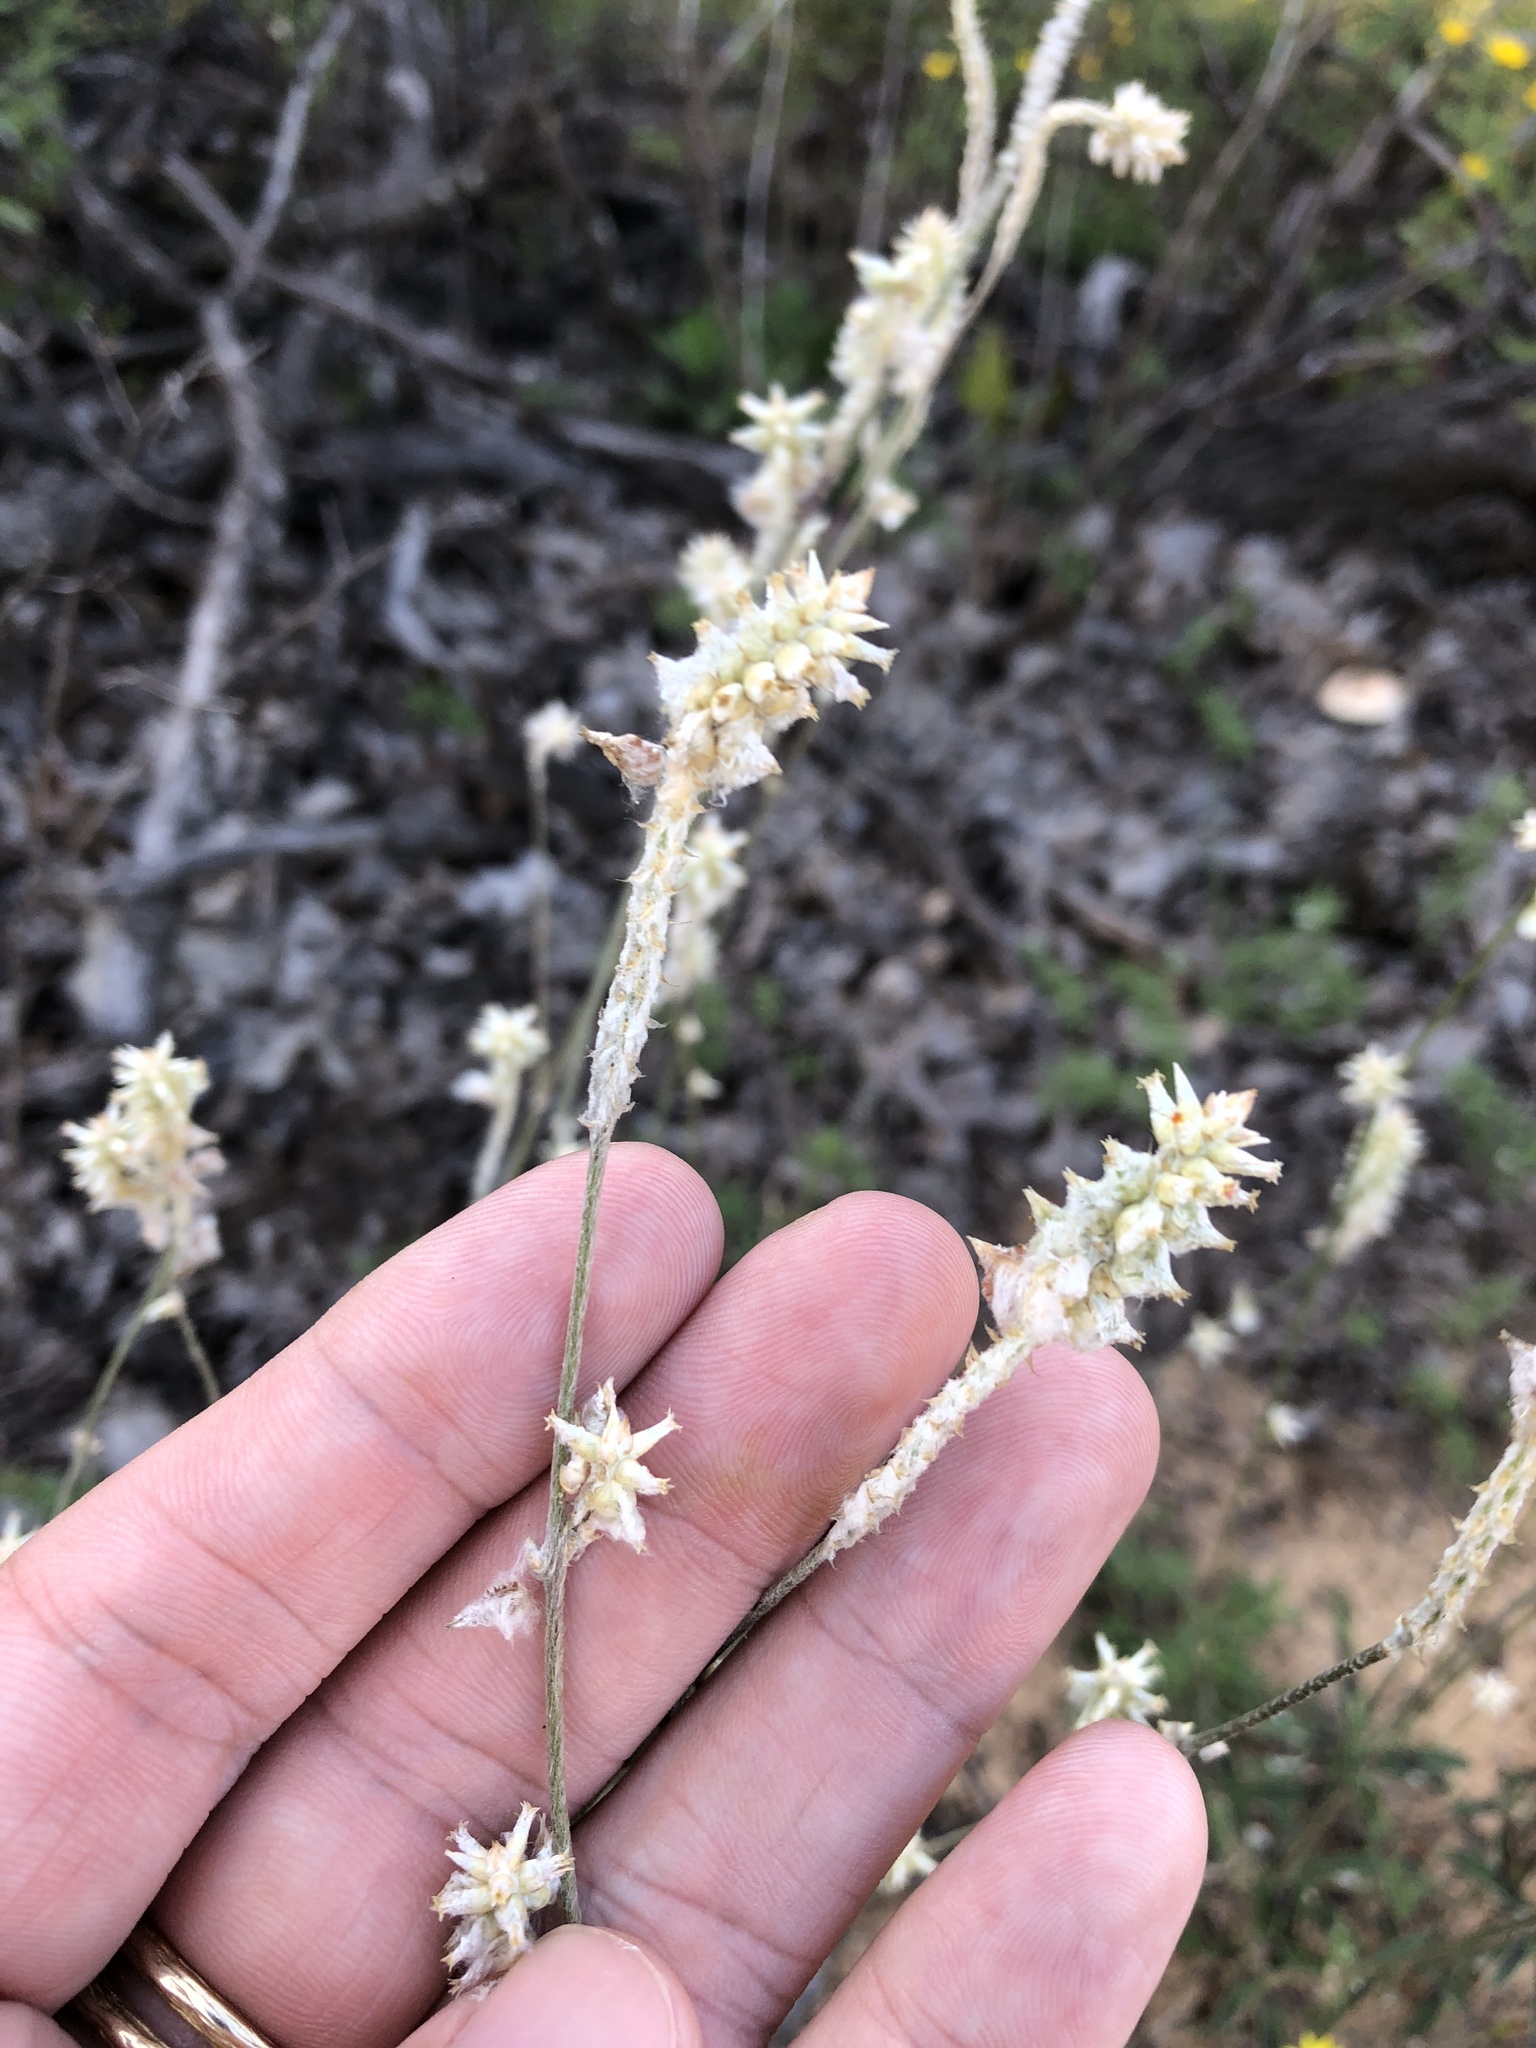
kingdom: Plantae
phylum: Tracheophyta
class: Magnoliopsida
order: Caryophyllales
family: Amaranthaceae
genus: Froelichia
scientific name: Froelichia floridana
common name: Florida snake-cotton
